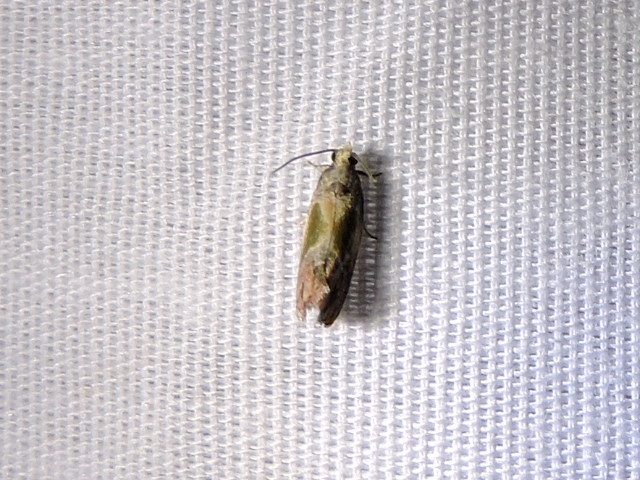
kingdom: Animalia
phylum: Arthropoda
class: Insecta
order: Lepidoptera
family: Tortricidae
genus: Eumarozia
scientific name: Eumarozia malachitana
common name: Sculptured moth
